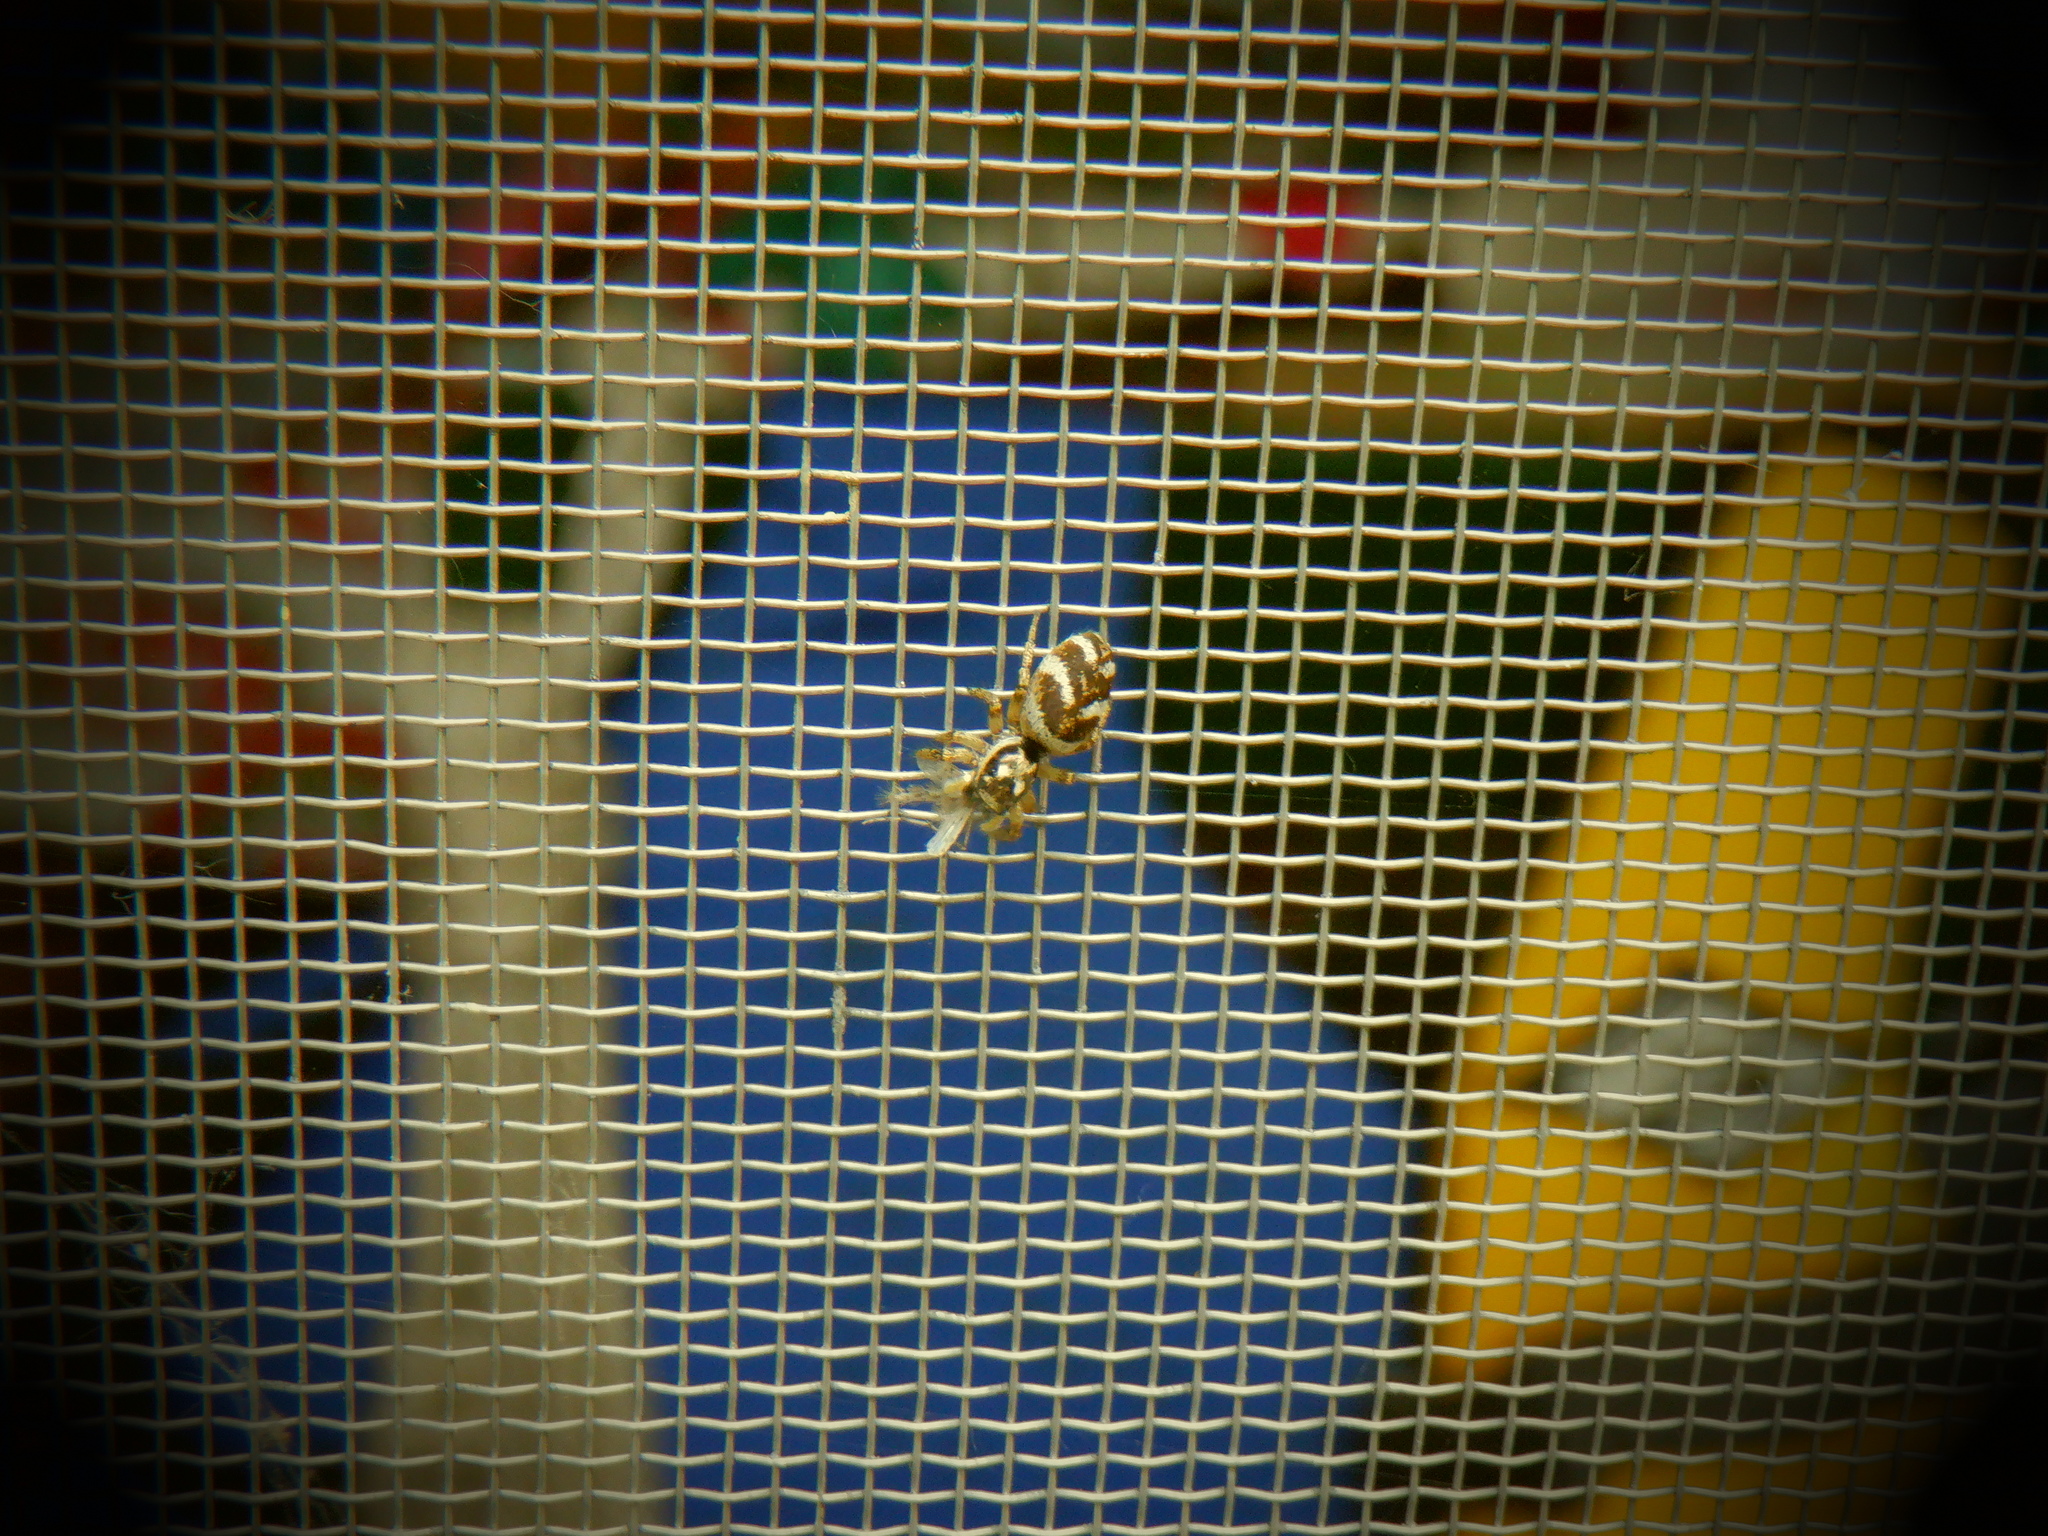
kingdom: Animalia
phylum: Arthropoda
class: Arachnida
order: Araneae
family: Salticidae
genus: Salticus
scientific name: Salticus scenicus
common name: Zebra jumper
